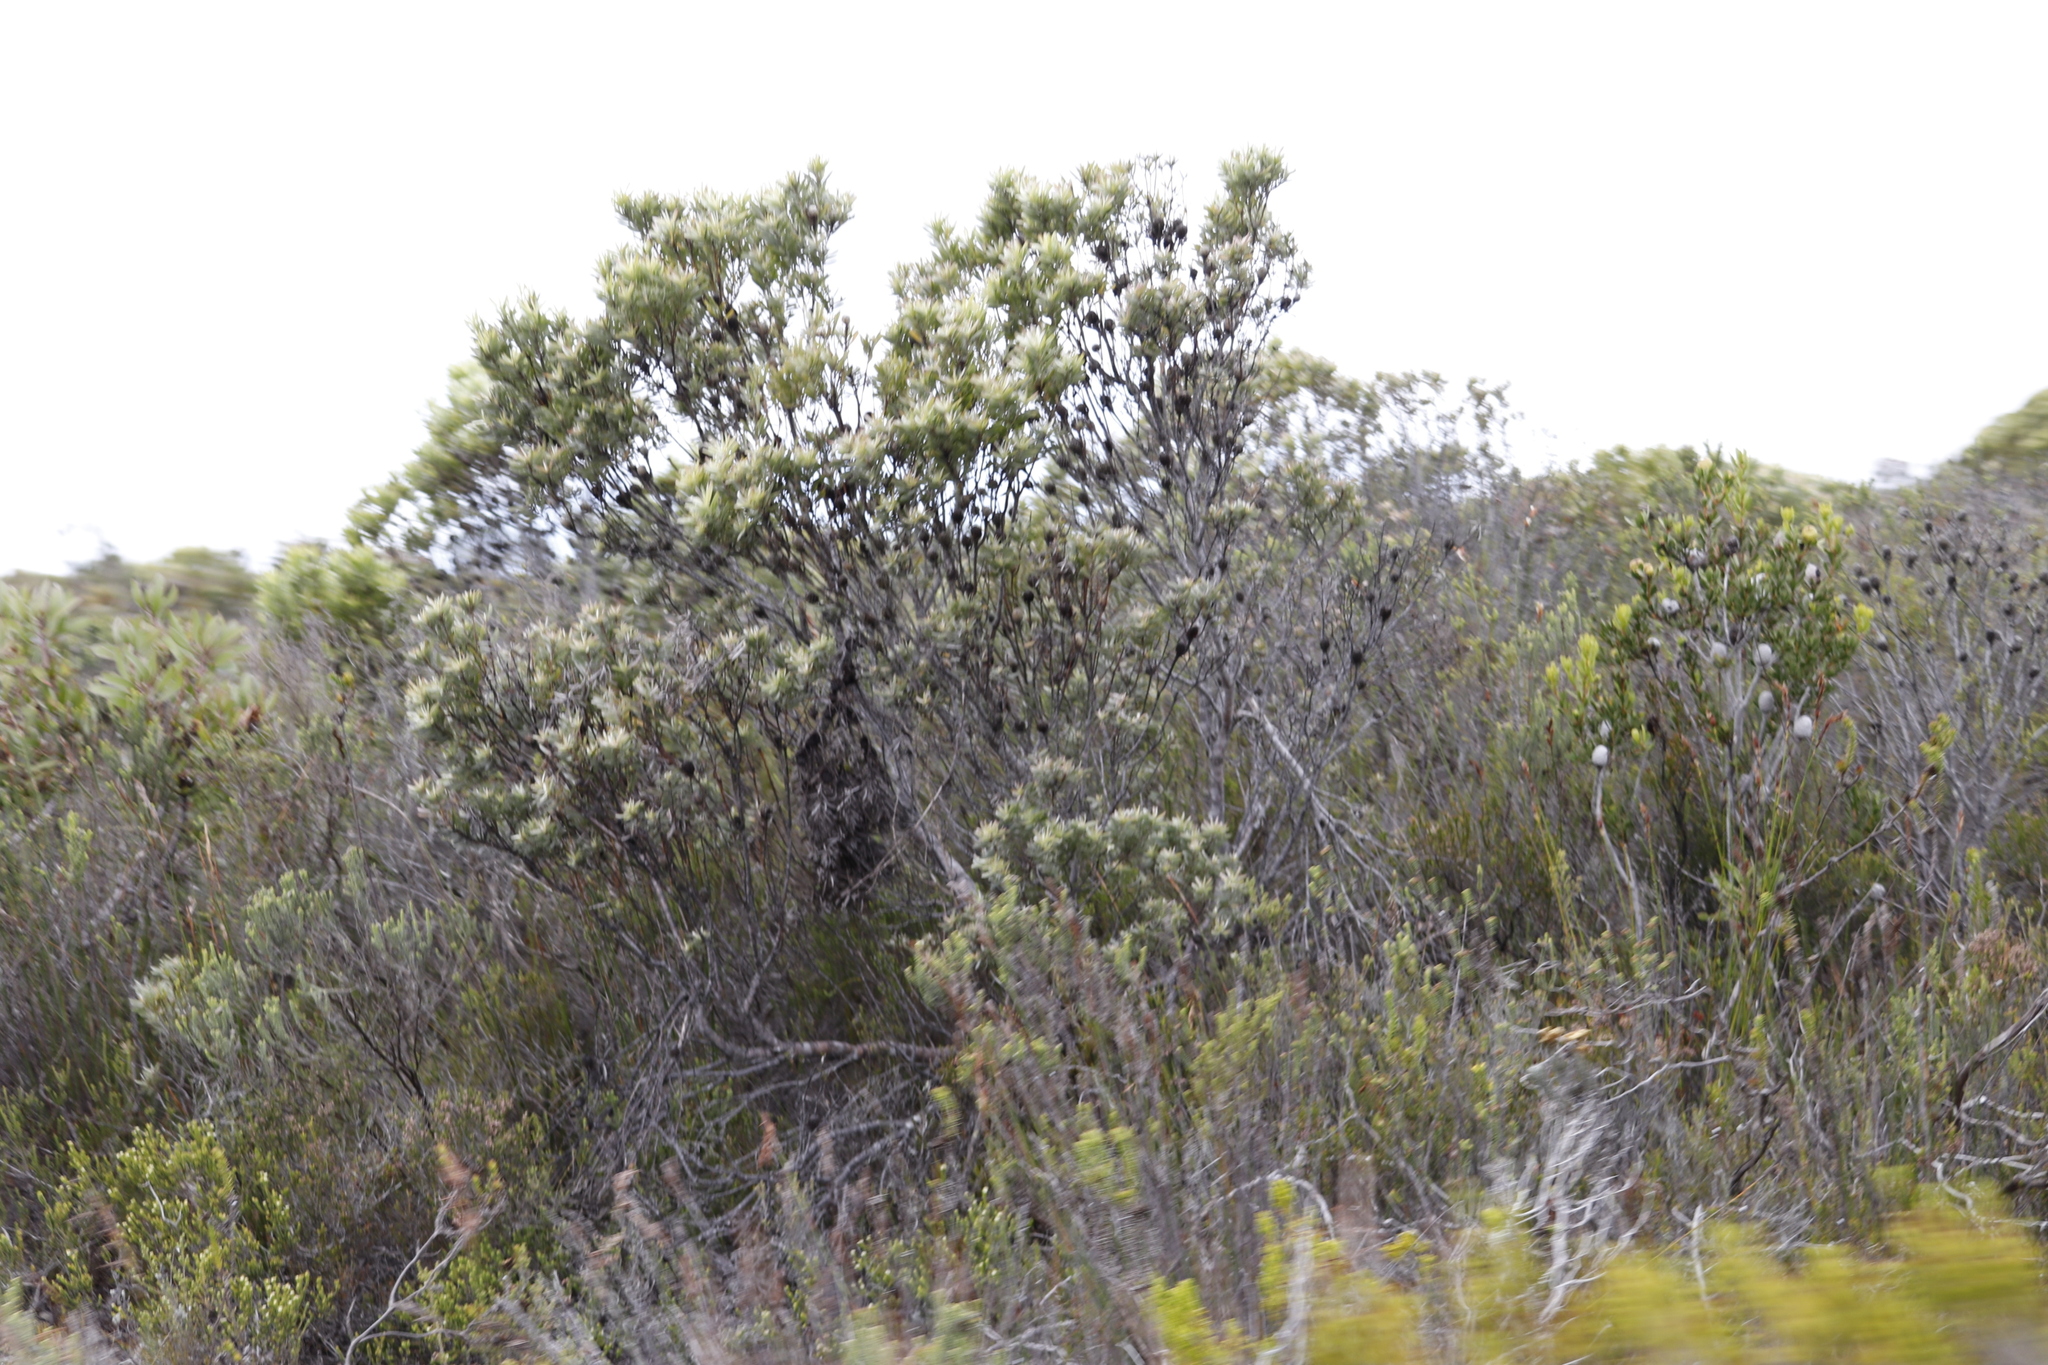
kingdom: Plantae
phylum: Tracheophyta
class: Magnoliopsida
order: Proteales
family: Proteaceae
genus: Leucadendron
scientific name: Leucadendron meridianum
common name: Limestone conebush
